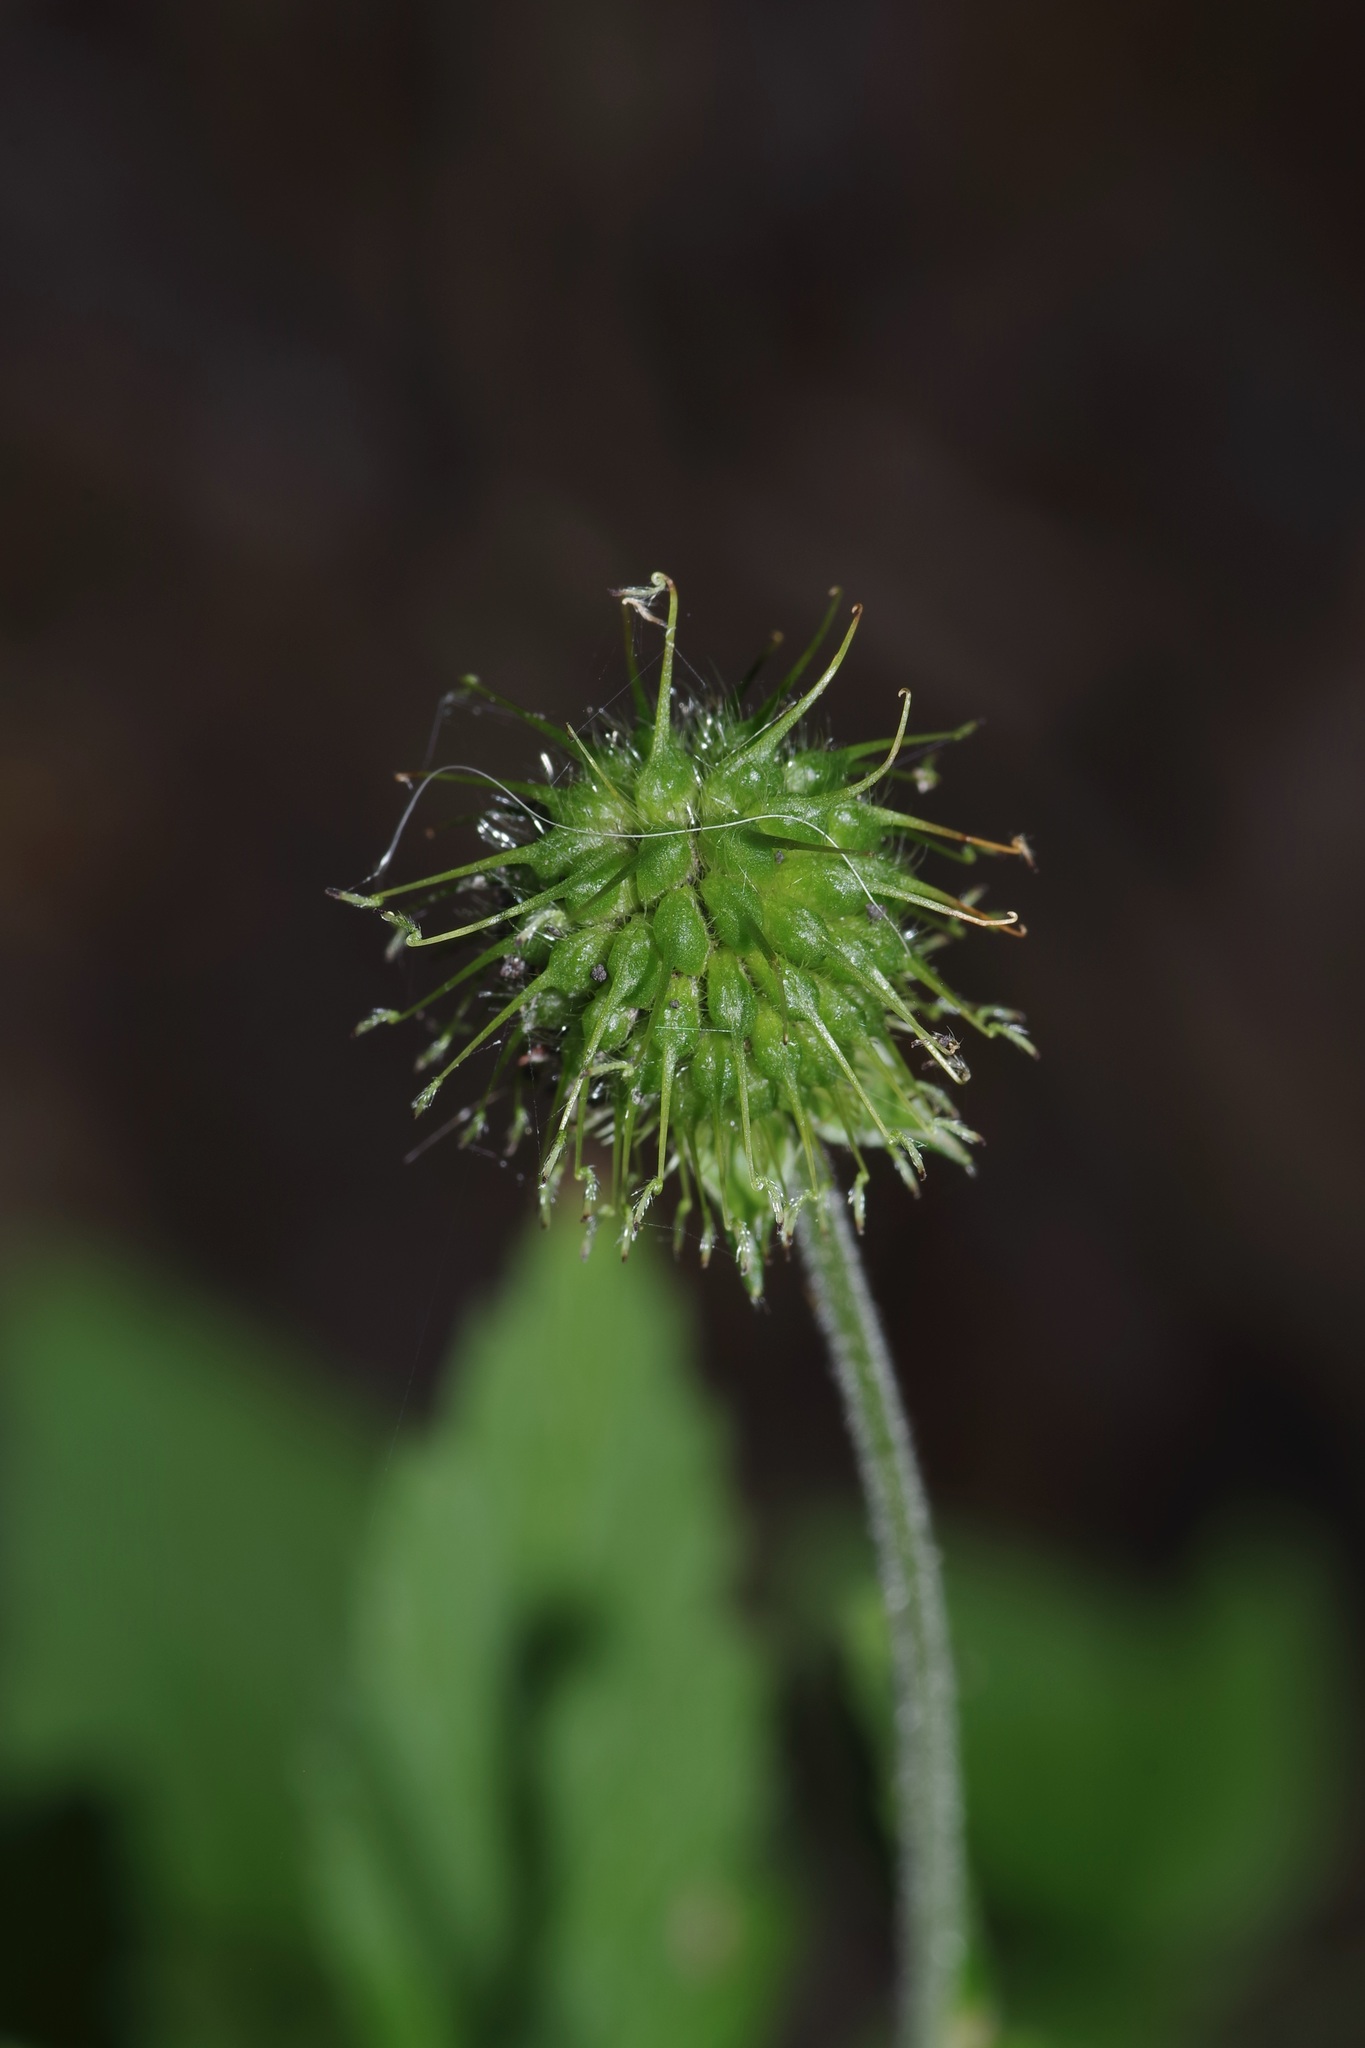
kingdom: Plantae
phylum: Tracheophyta
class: Magnoliopsida
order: Rosales
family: Rosaceae
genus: Geum
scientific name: Geum canadense
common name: White avens
